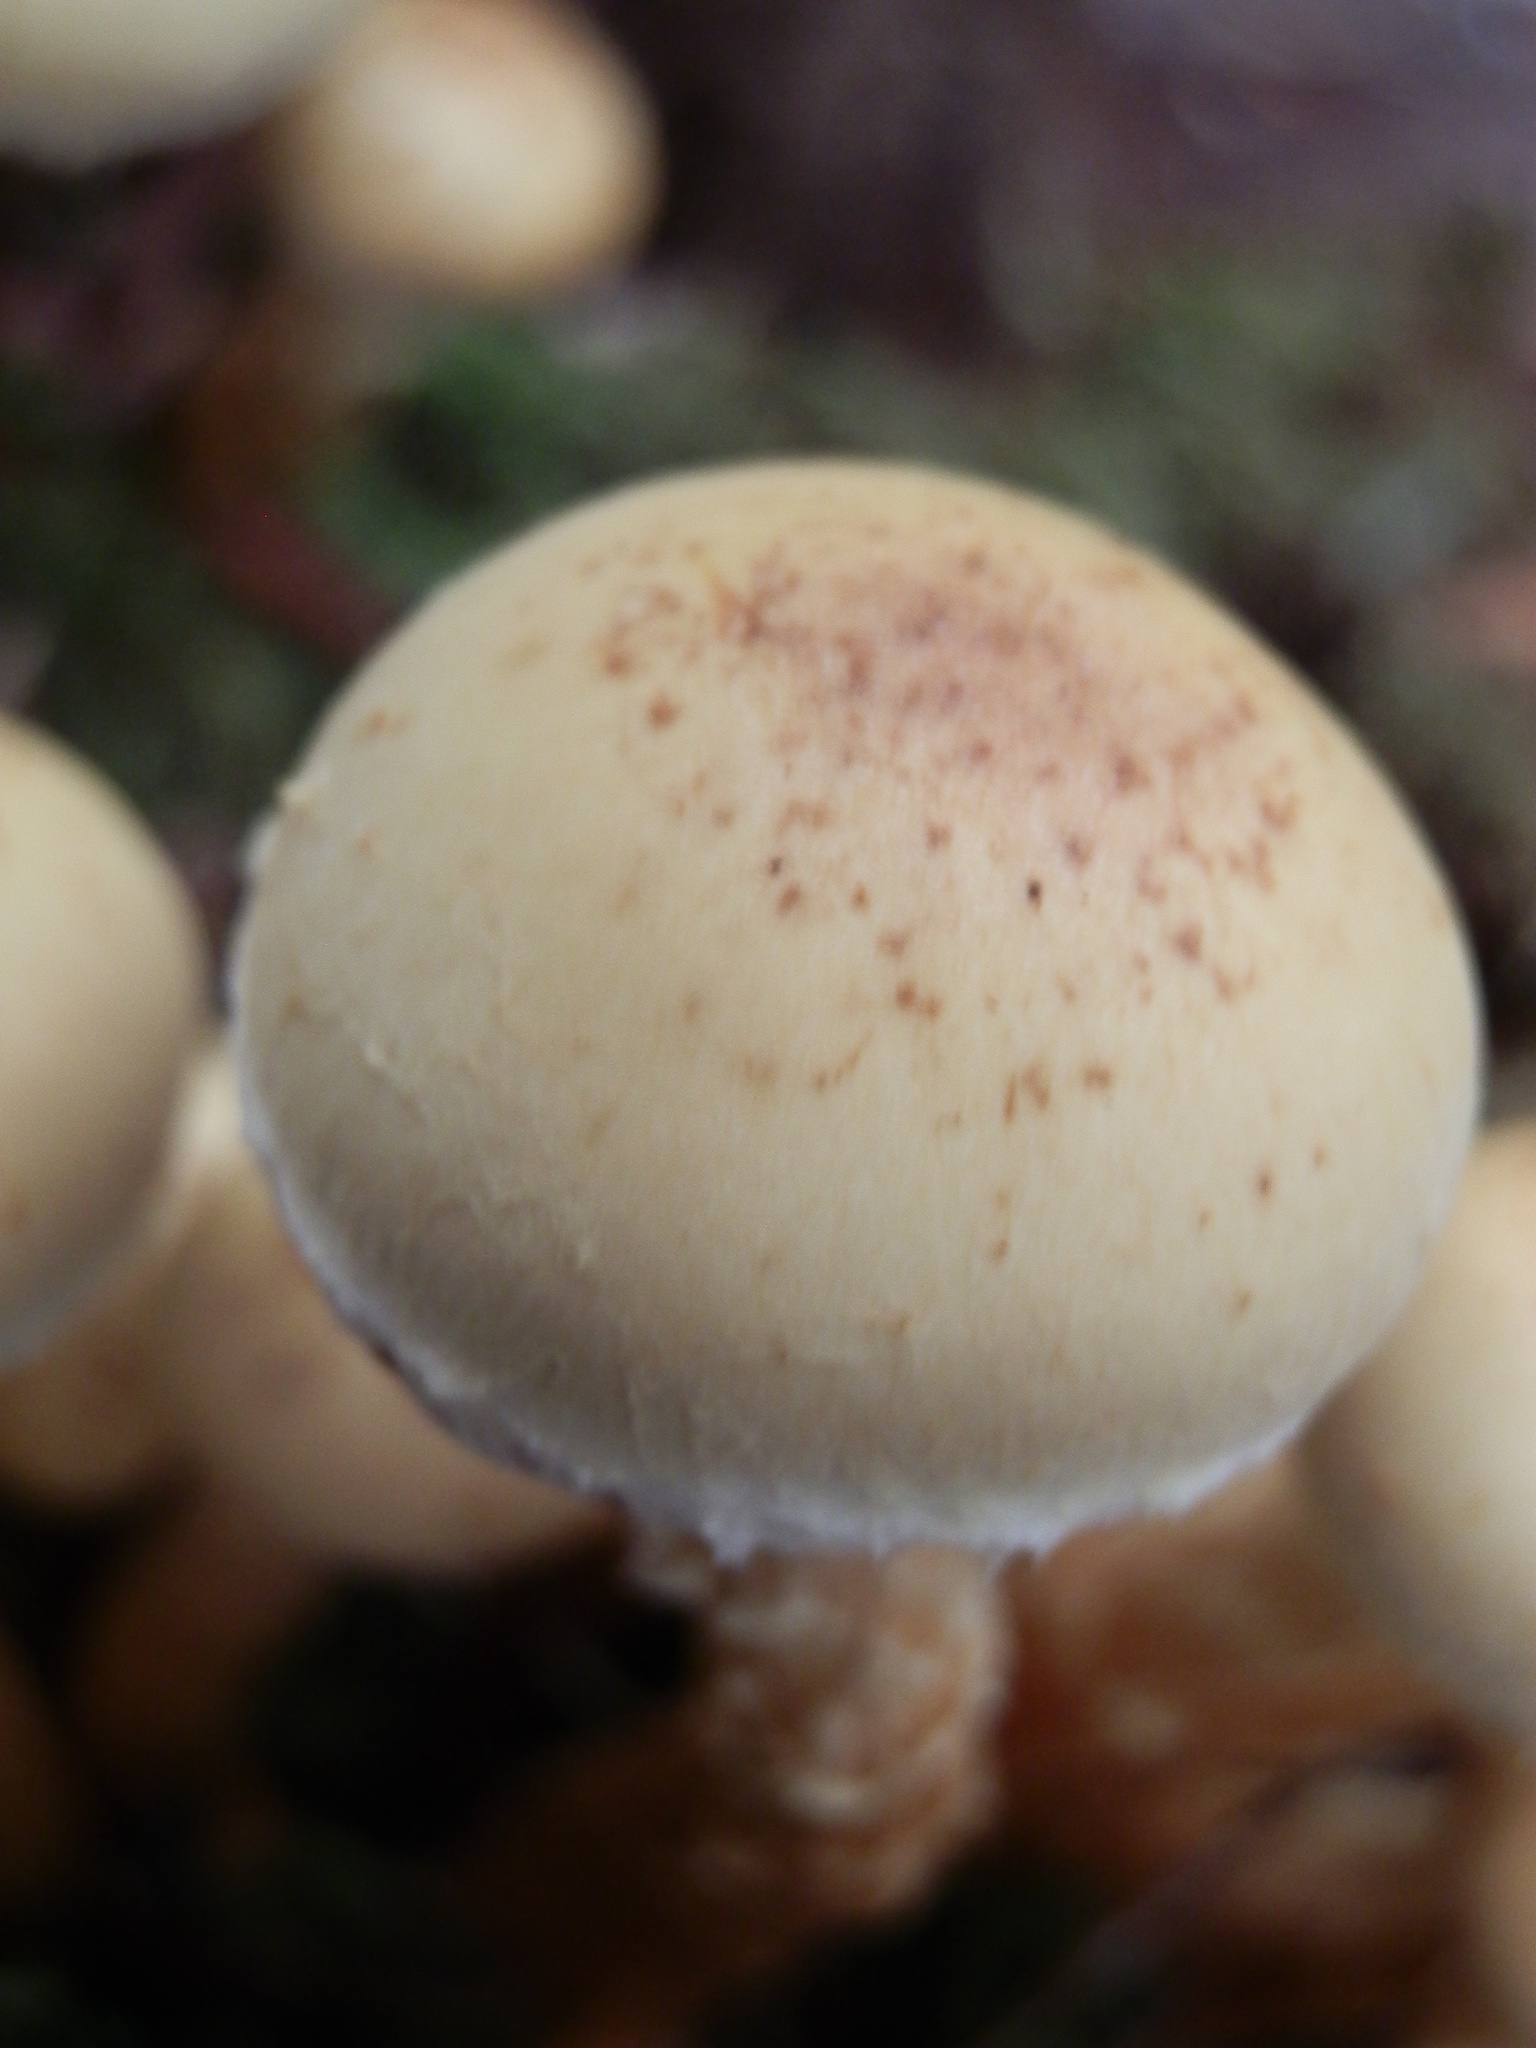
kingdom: Fungi
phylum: Basidiomycota
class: Agaricomycetes
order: Agaricales
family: Hymenogastraceae
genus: Flammula
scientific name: Flammula alnicola
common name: Alder scalycap
